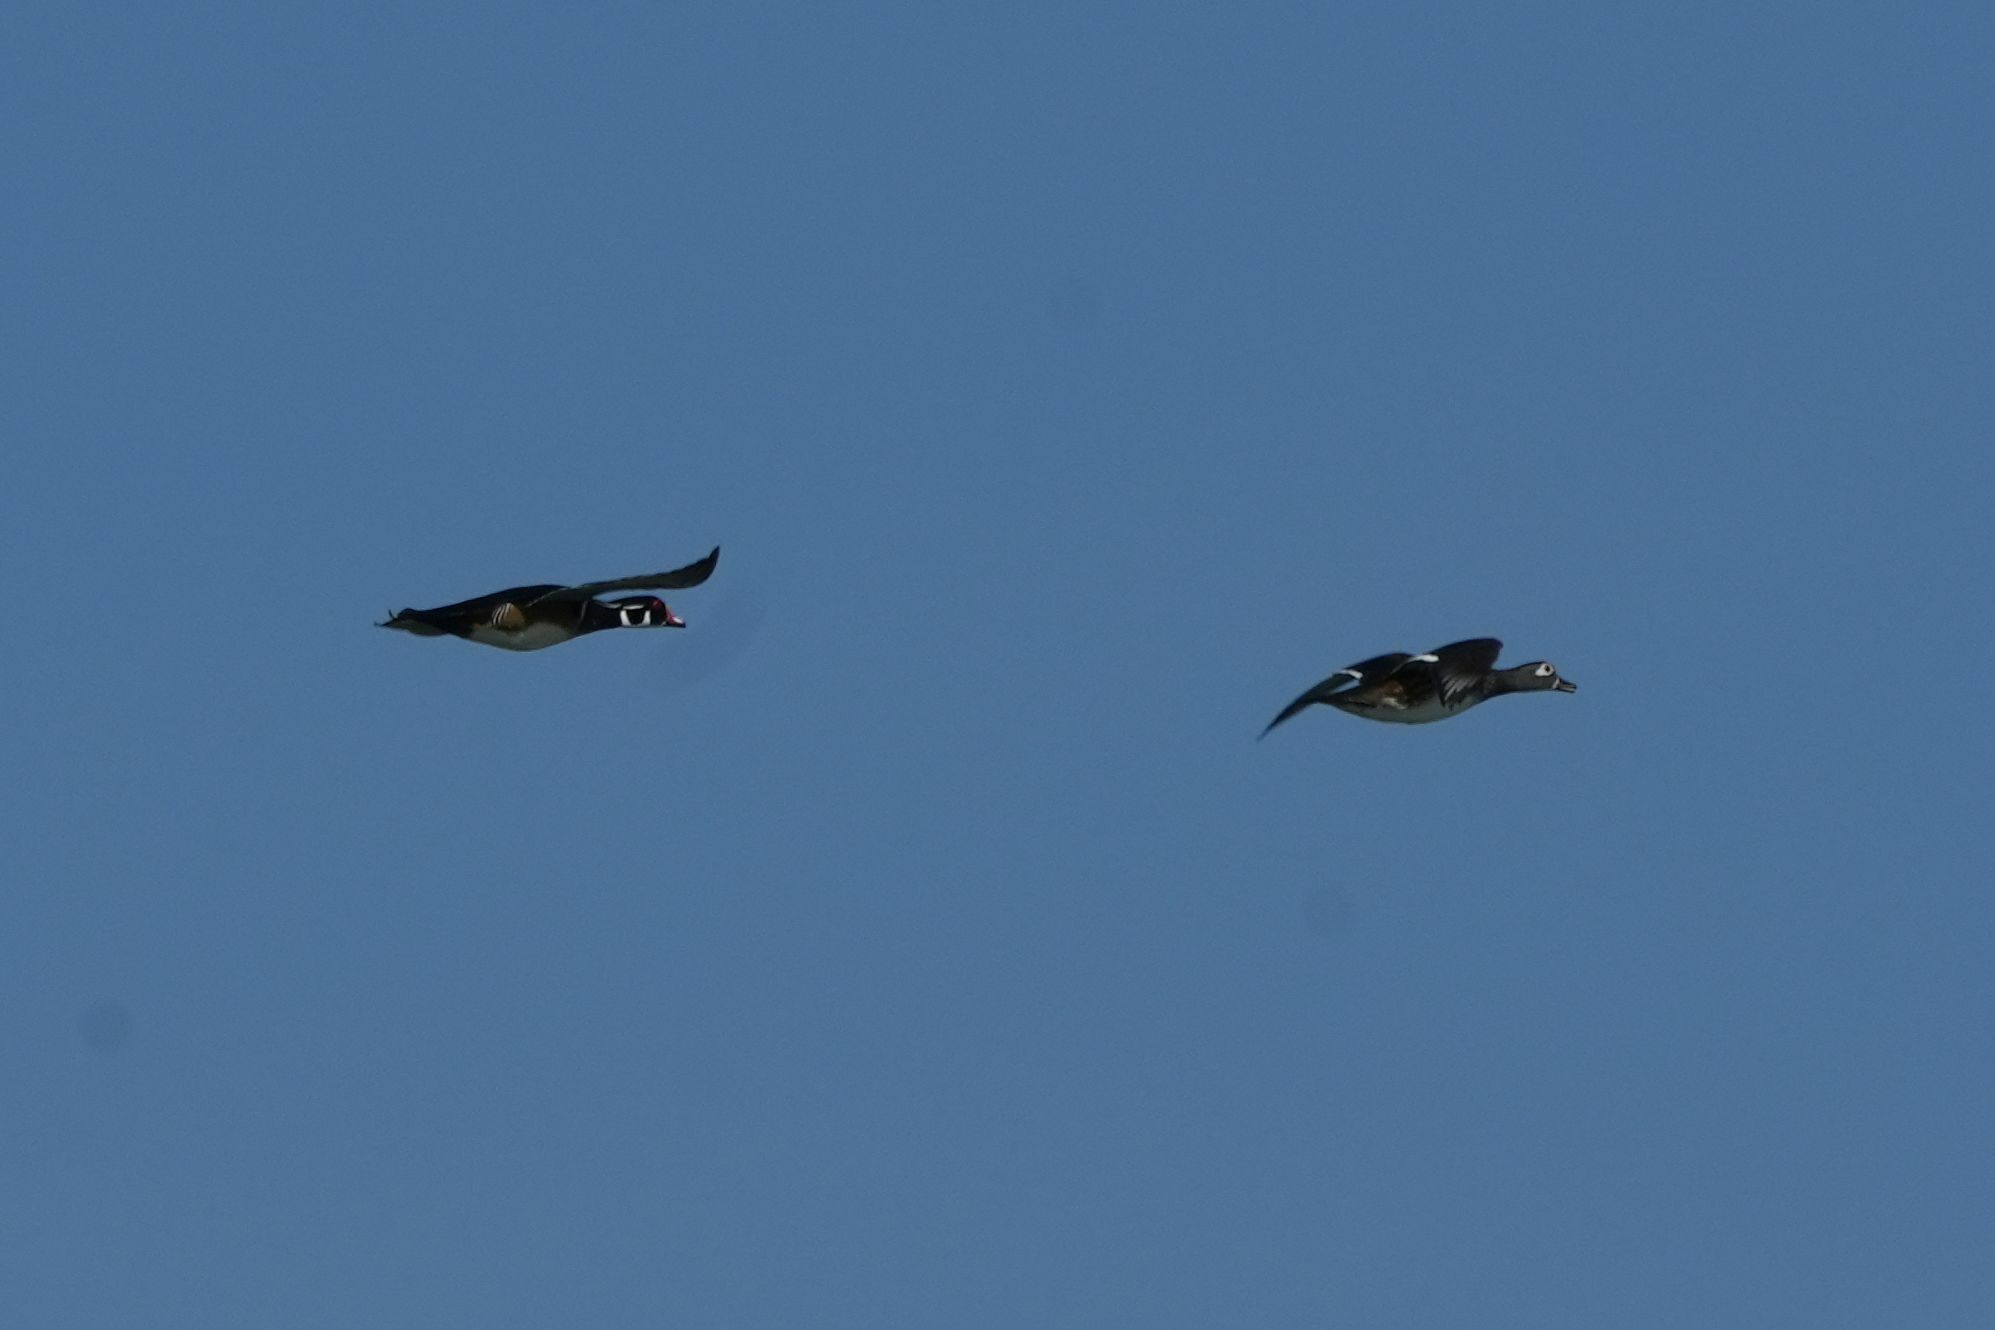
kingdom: Animalia
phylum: Chordata
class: Aves
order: Anseriformes
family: Anatidae
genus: Aix
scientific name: Aix sponsa
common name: Wood duck
